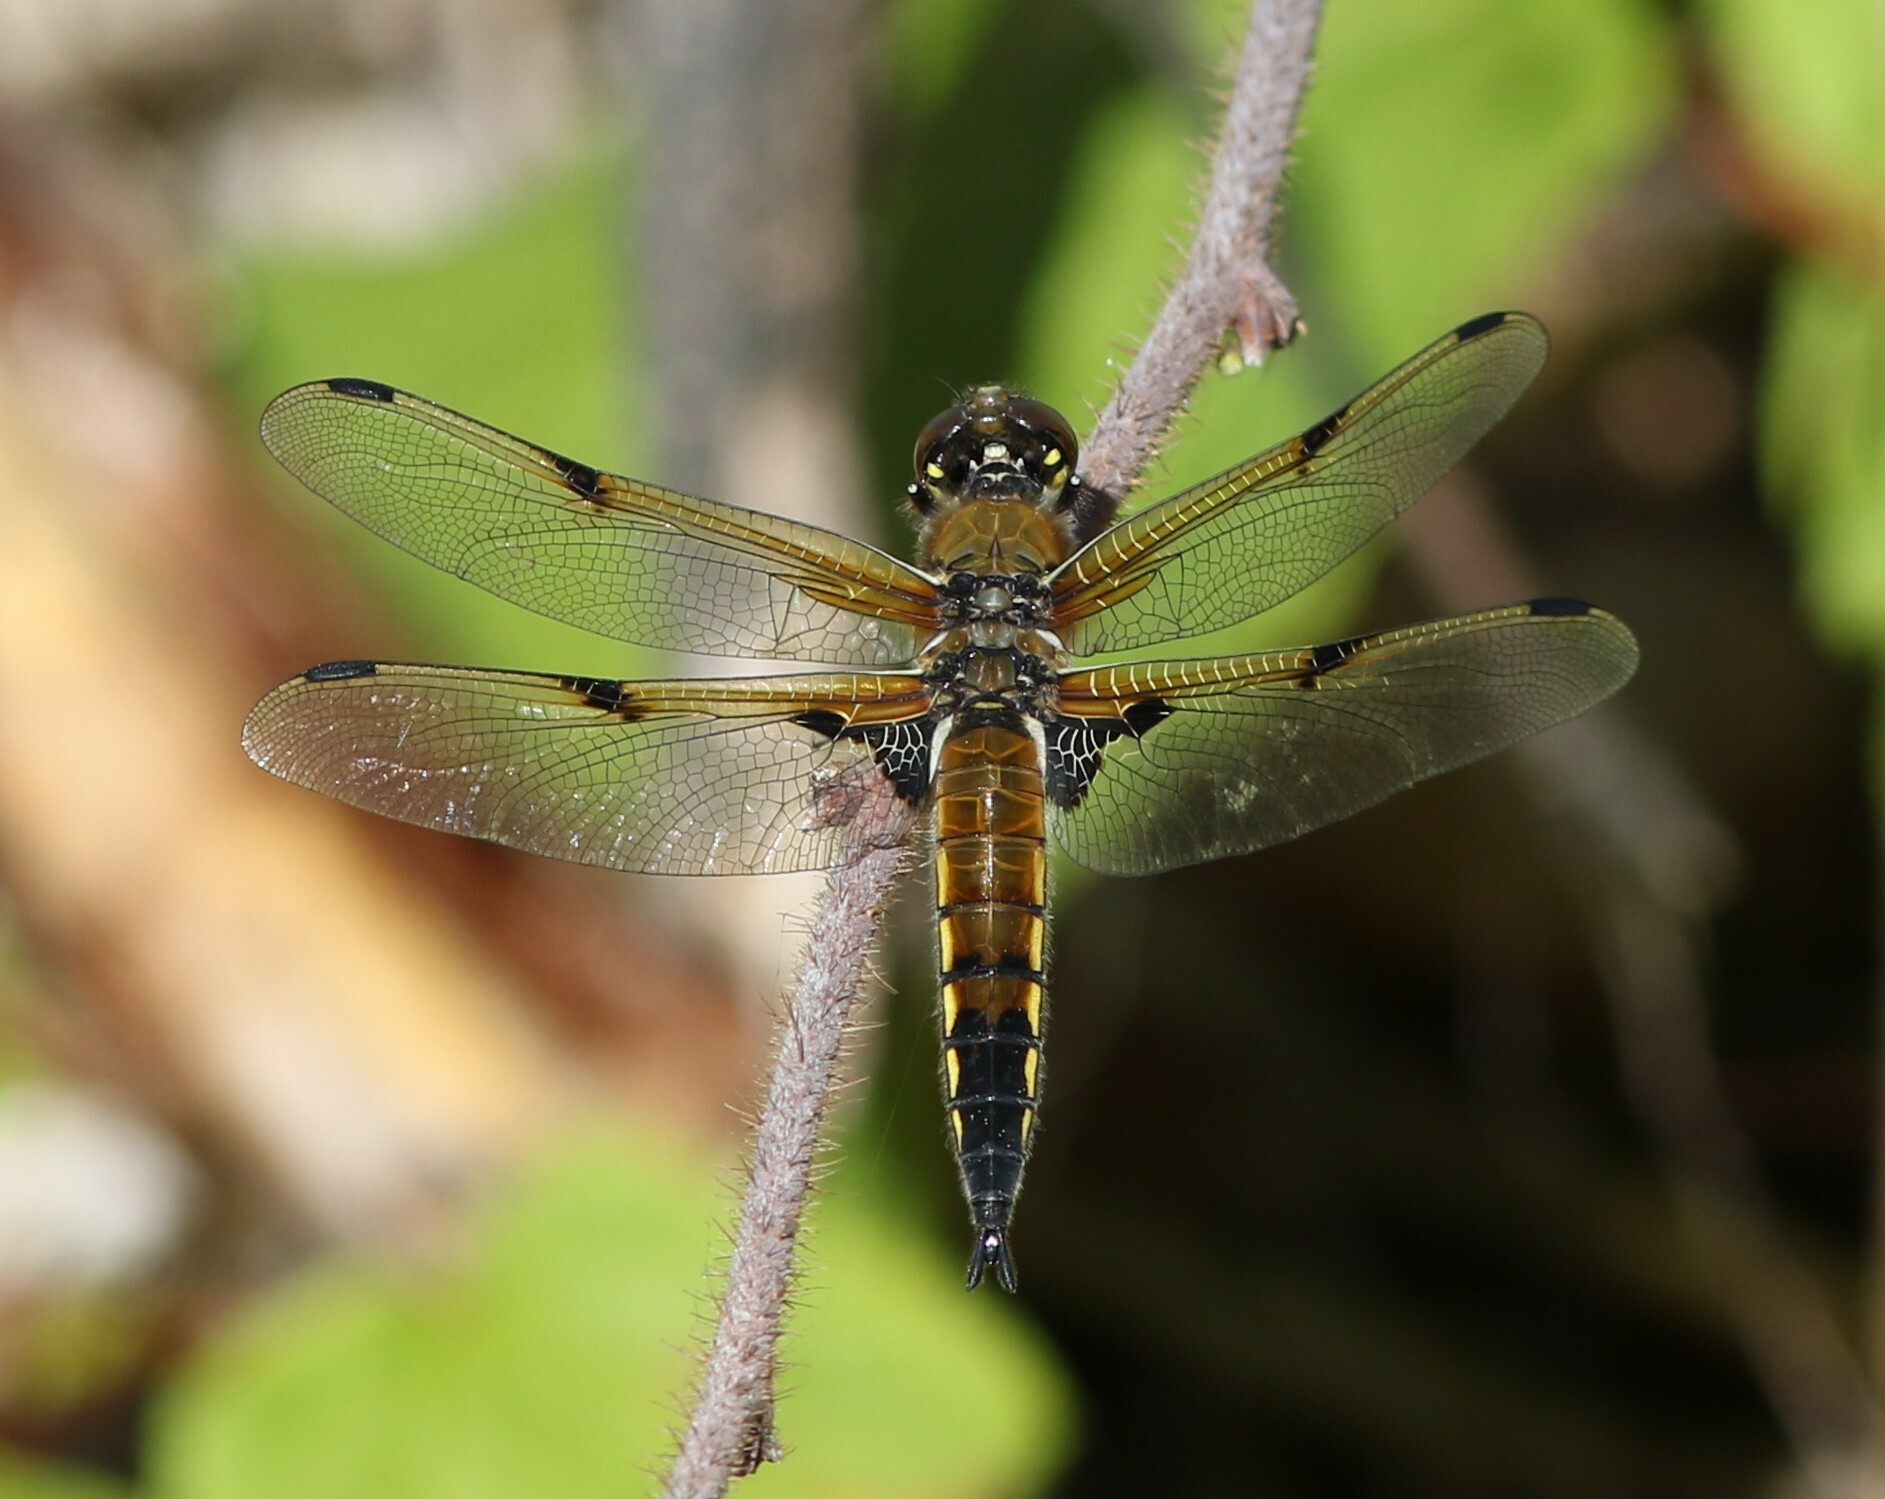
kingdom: Animalia
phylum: Arthropoda
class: Insecta
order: Odonata
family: Libellulidae
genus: Libellula
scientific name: Libellula quadrimaculata
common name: Four-spotted chaser
